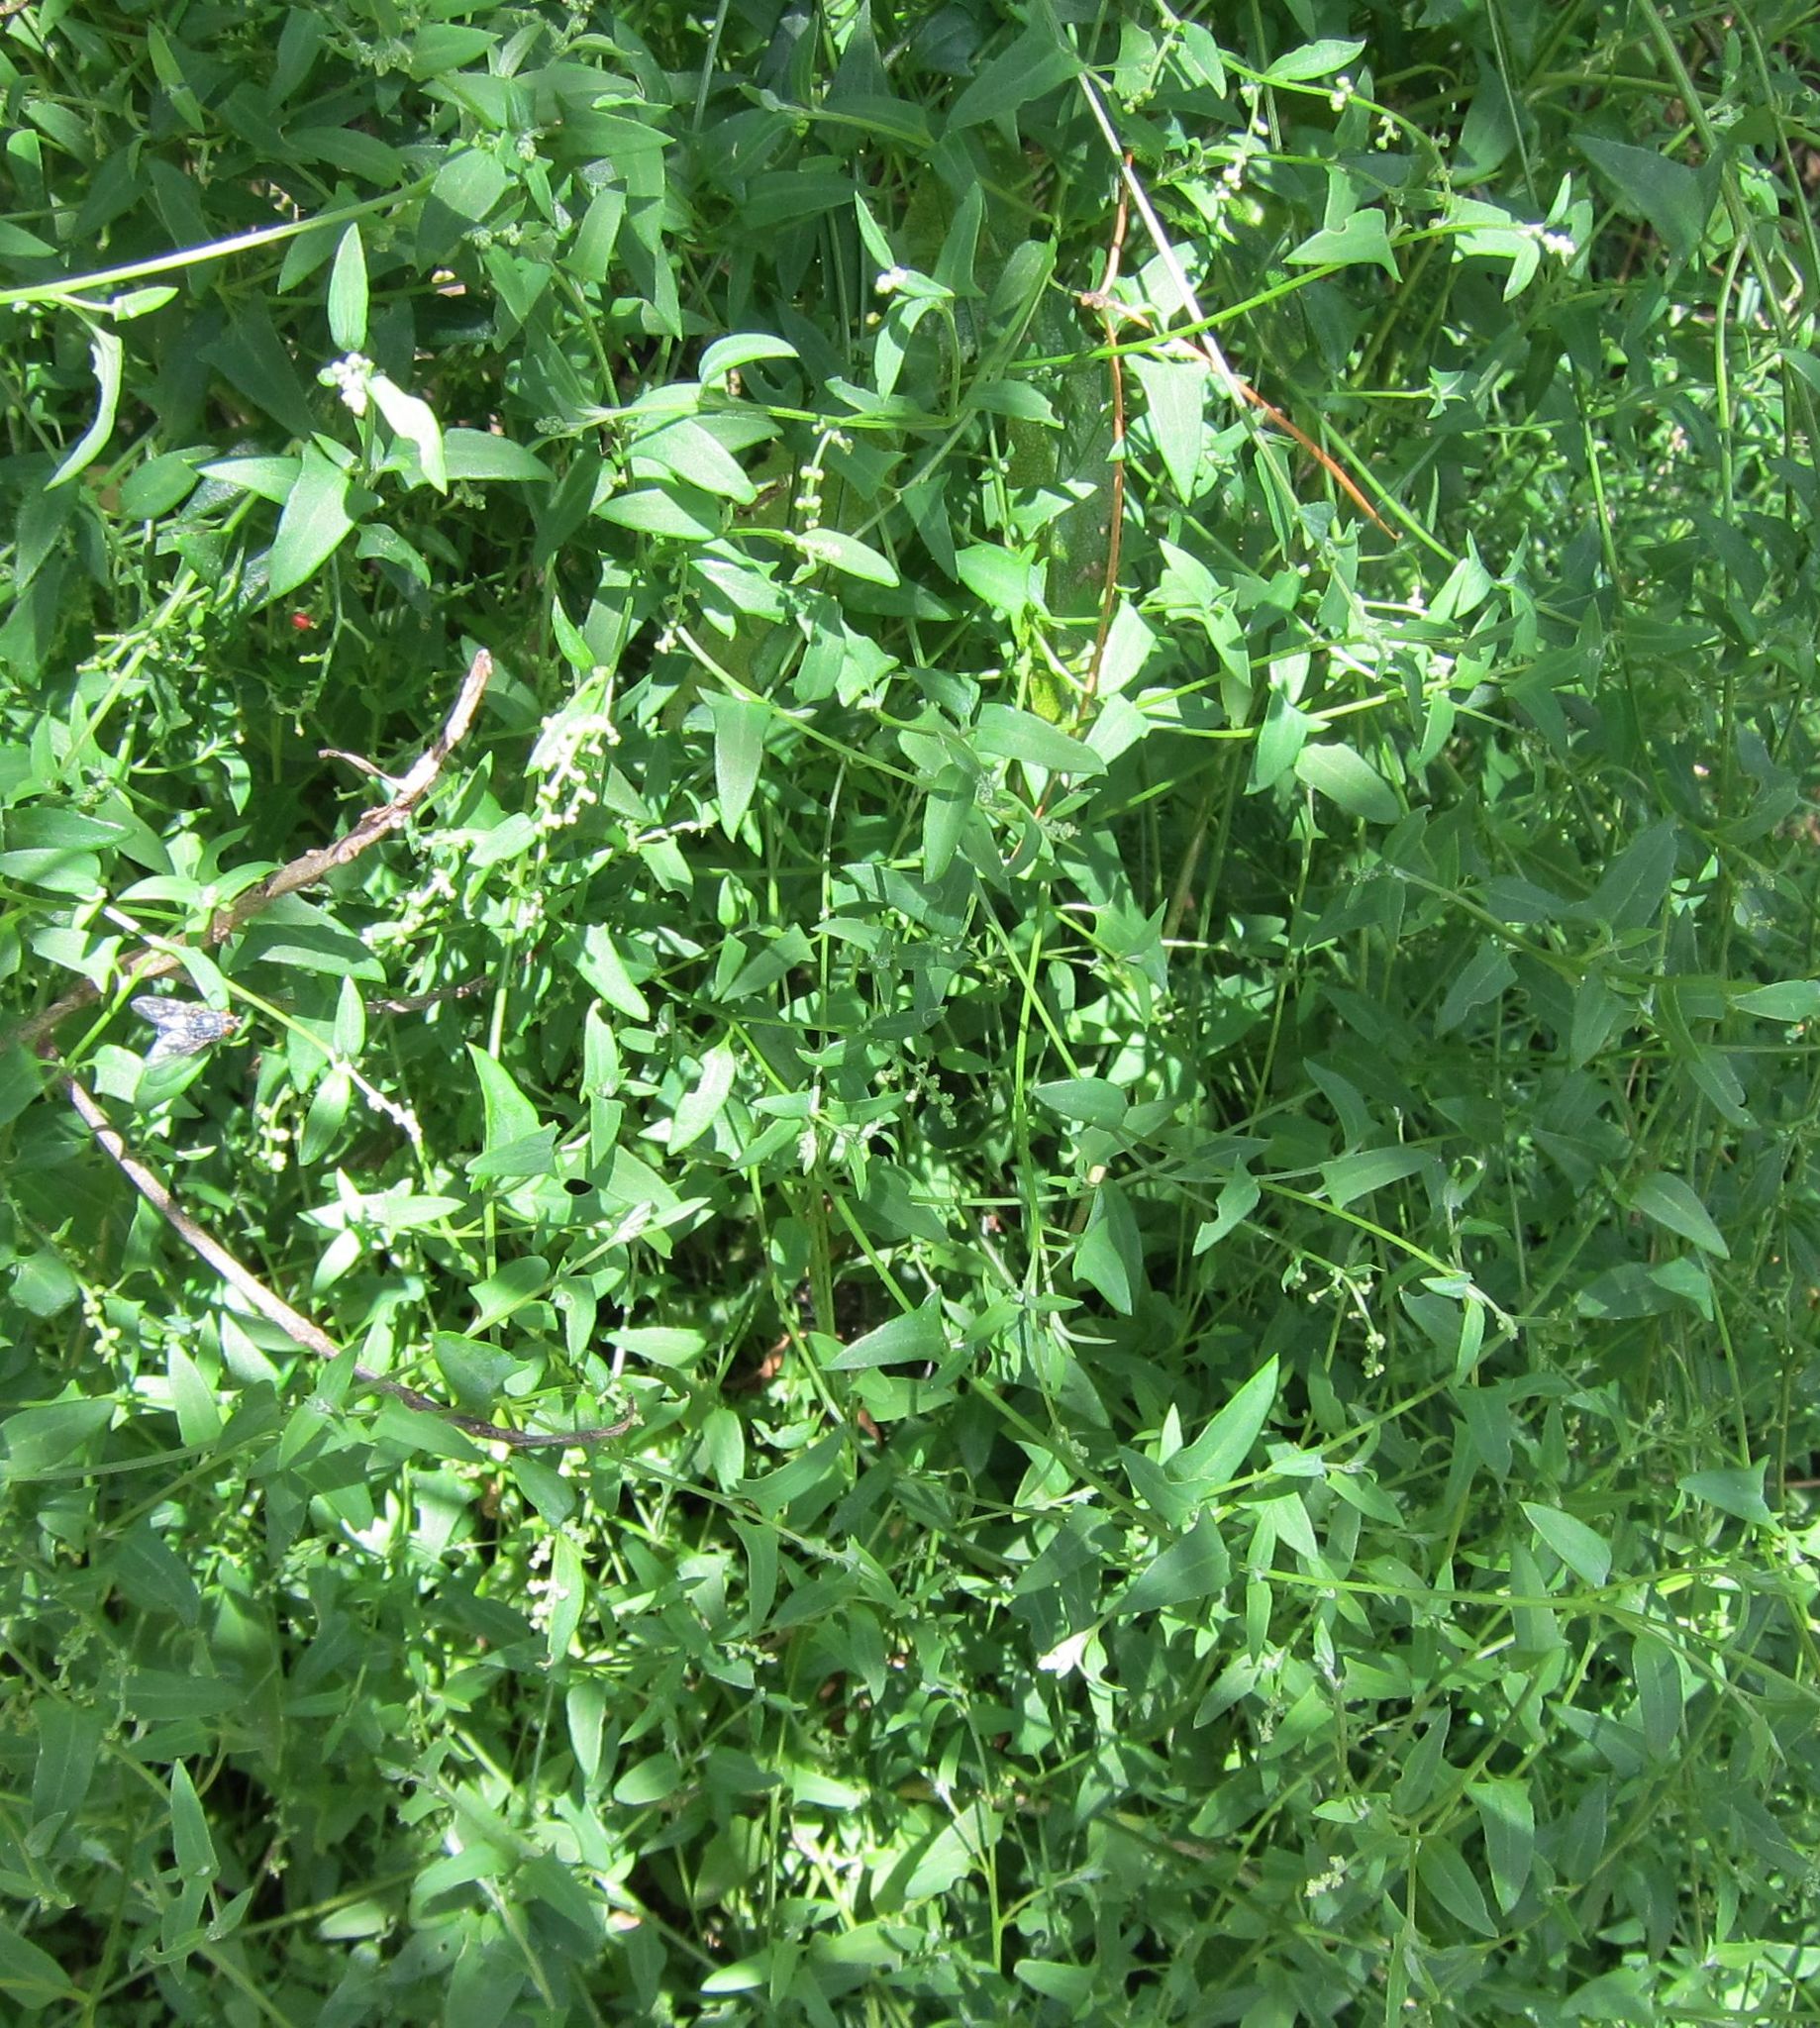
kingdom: Plantae
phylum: Tracheophyta
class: Magnoliopsida
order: Caryophyllales
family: Amaranthaceae
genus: Chenopodium
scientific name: Chenopodium nutans
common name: Climbing-saltbush
